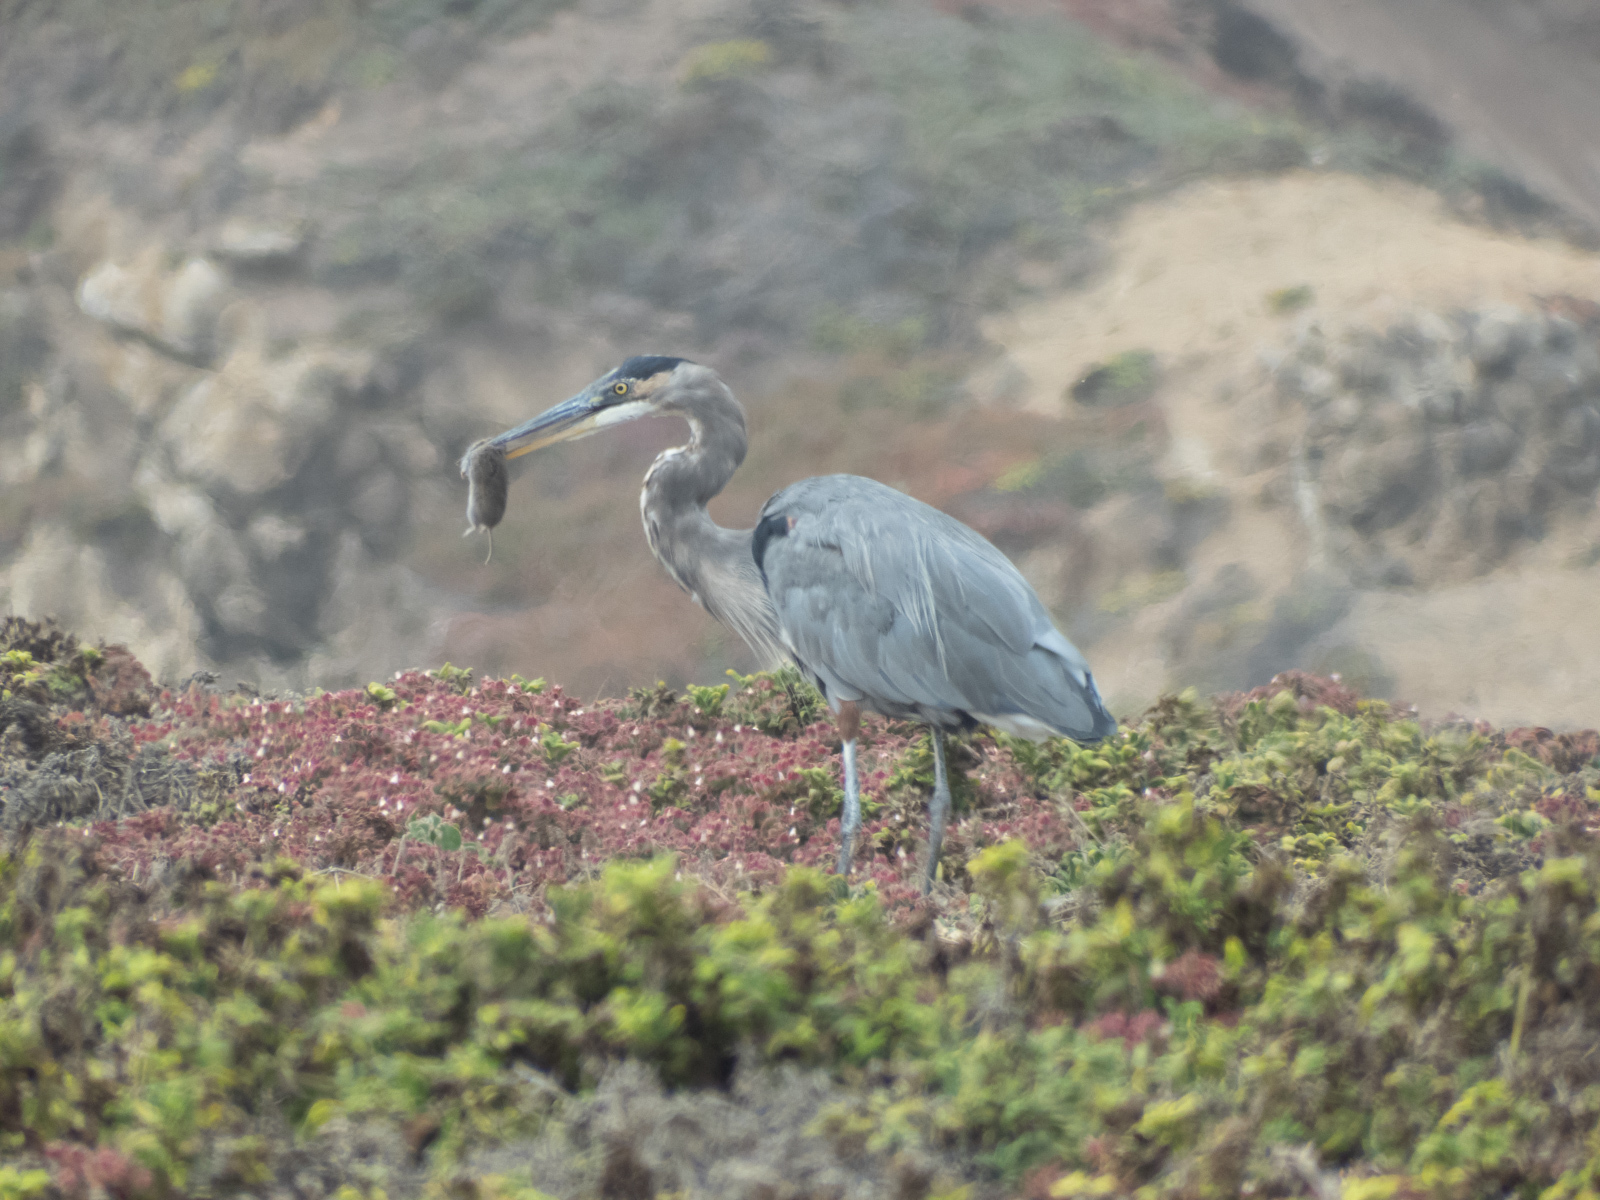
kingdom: Animalia
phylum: Chordata
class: Mammalia
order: Rodentia
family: Geomyidae
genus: Thomomys
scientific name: Thomomys bottae
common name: Botta's pocket gopher
